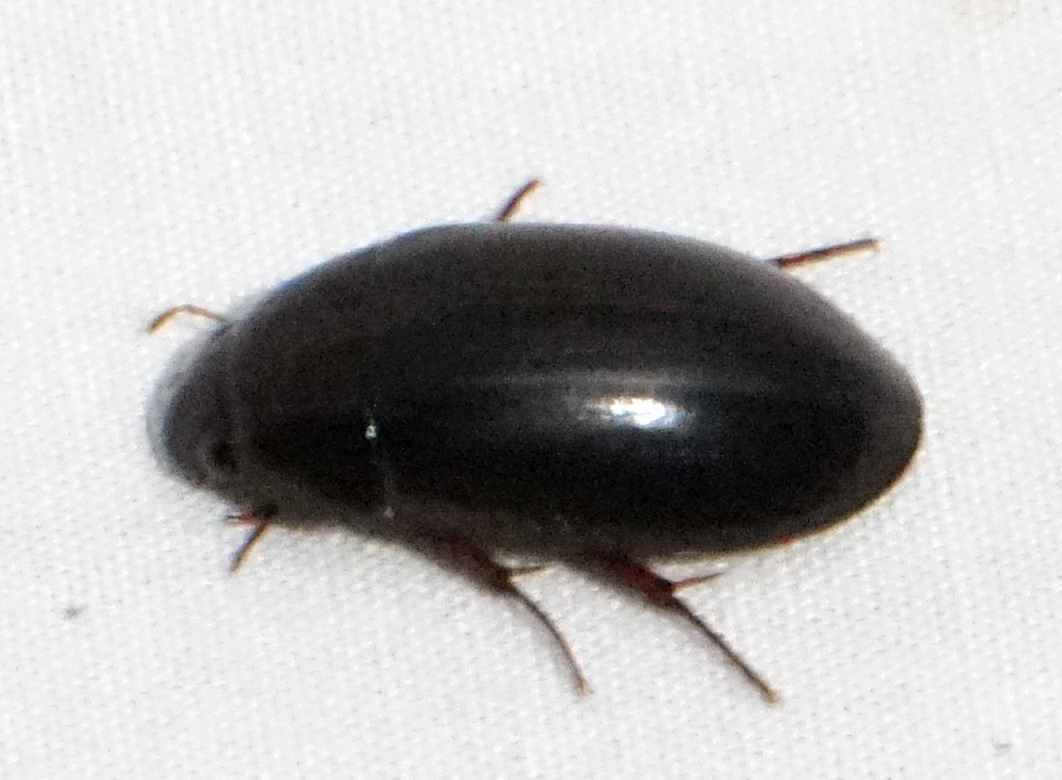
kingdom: Animalia
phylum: Arthropoda
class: Insecta
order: Coleoptera
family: Hydrophilidae
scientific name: Hydrophilidae
